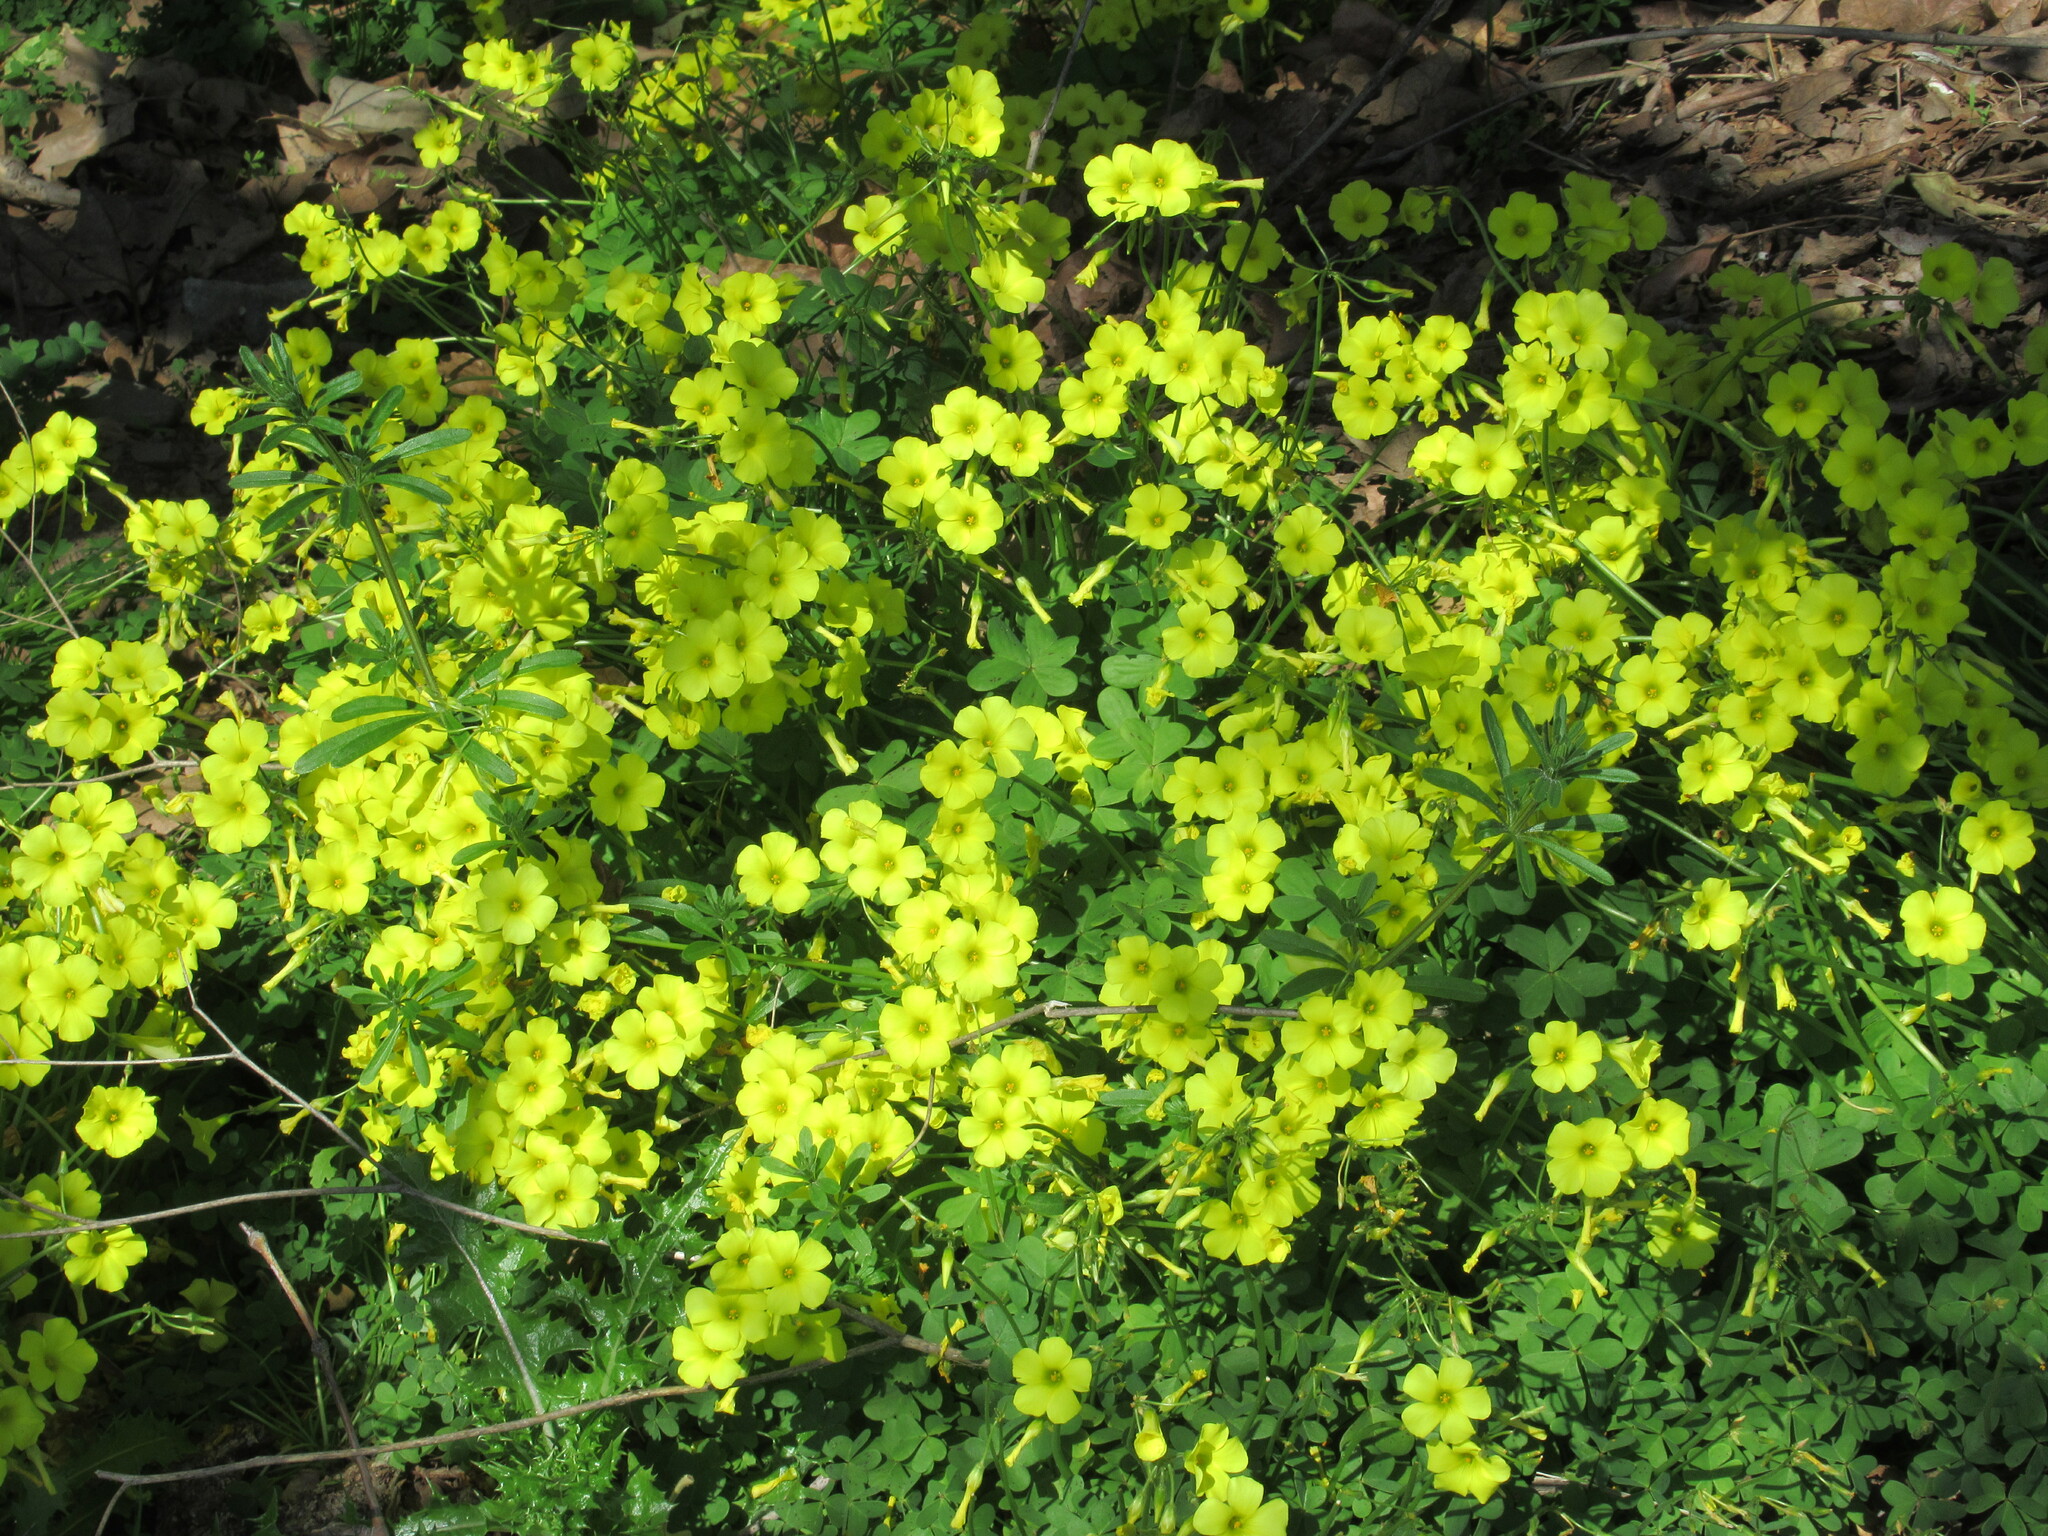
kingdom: Plantae
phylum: Tracheophyta
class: Magnoliopsida
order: Oxalidales
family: Oxalidaceae
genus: Oxalis
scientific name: Oxalis pes-caprae
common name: Bermuda-buttercup
